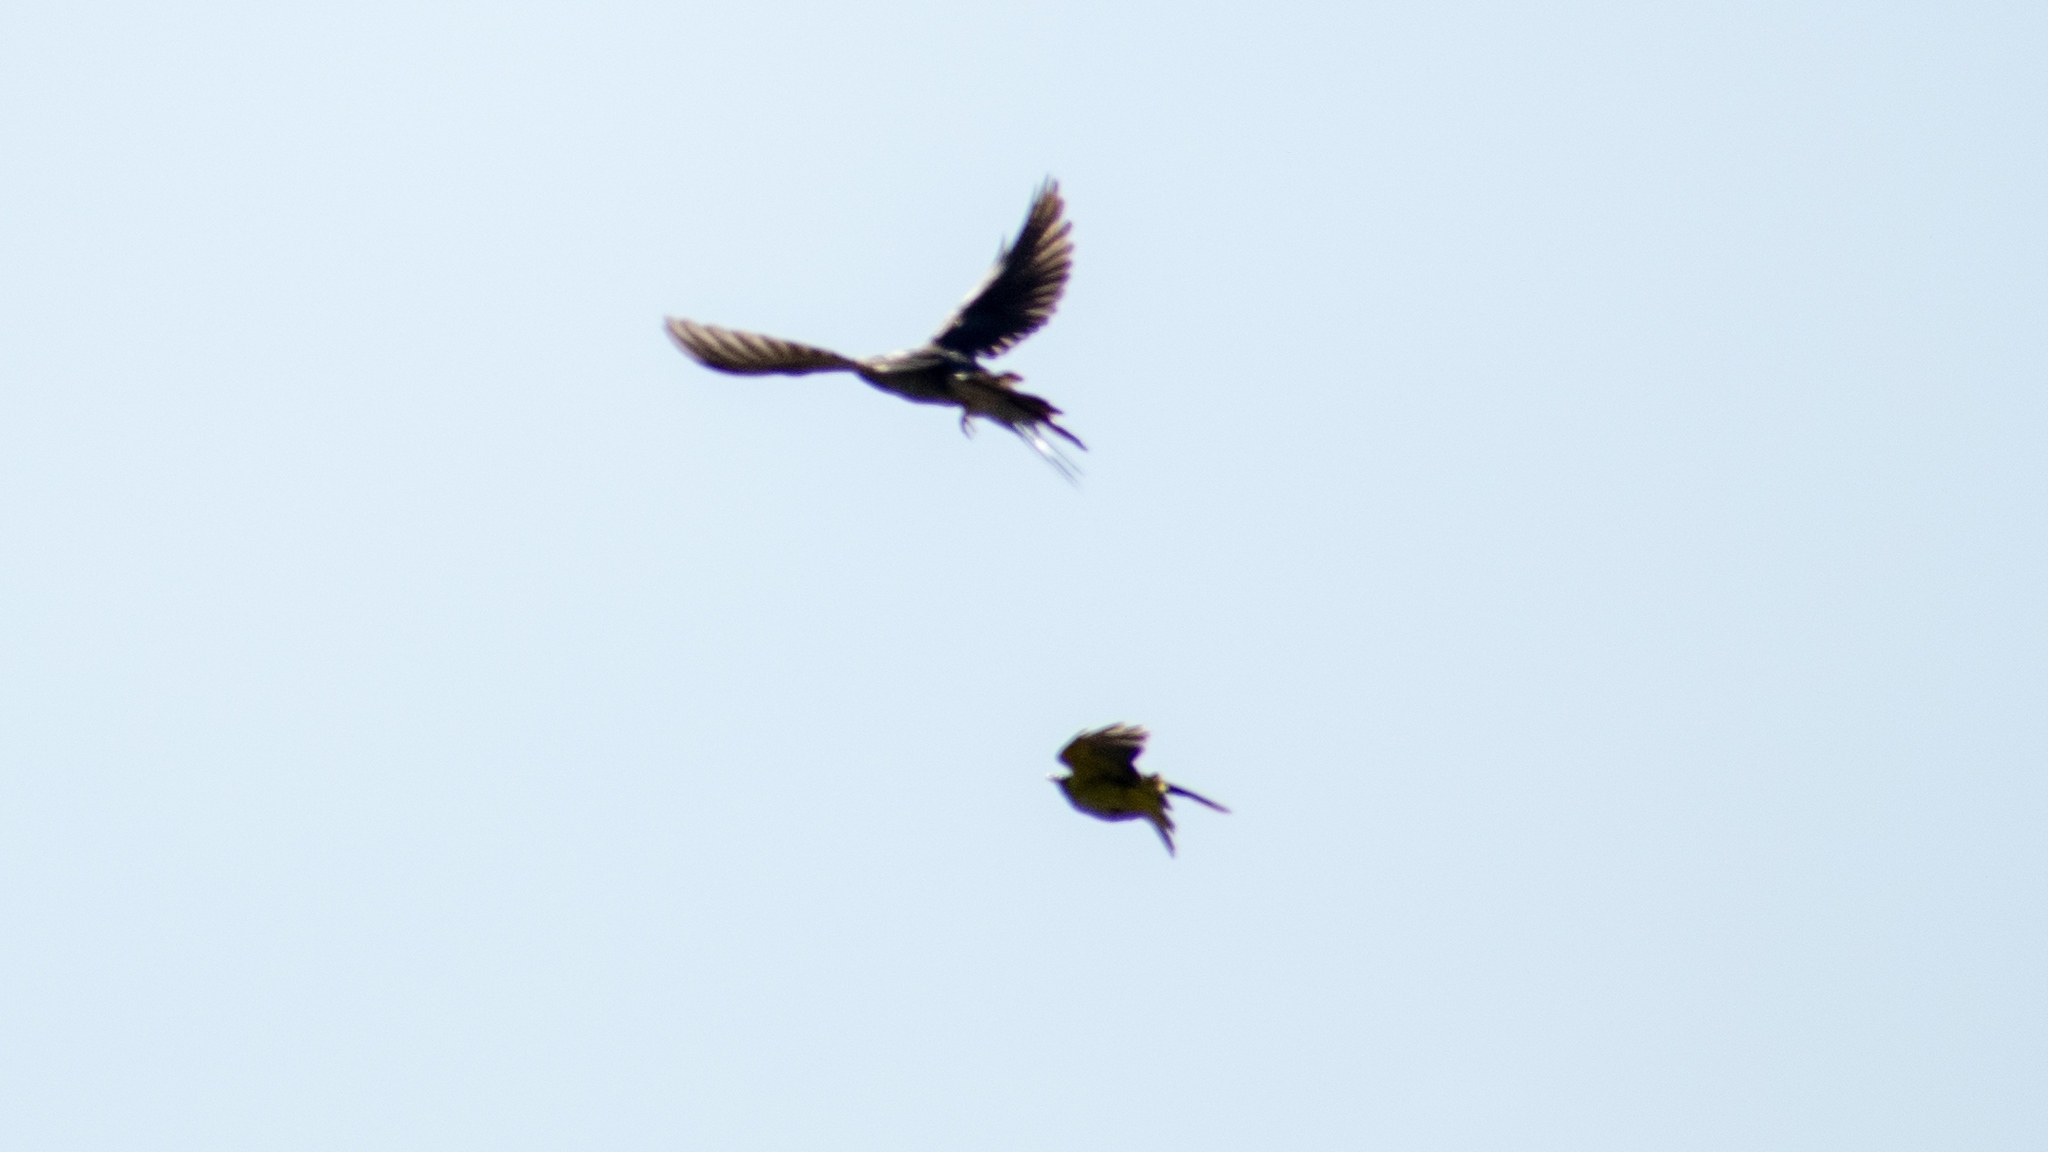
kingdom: Animalia
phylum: Chordata
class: Aves
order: Passeriformes
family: Oriolidae
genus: Oriolus
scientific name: Oriolus oriolus
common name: Eurasian golden oriole
